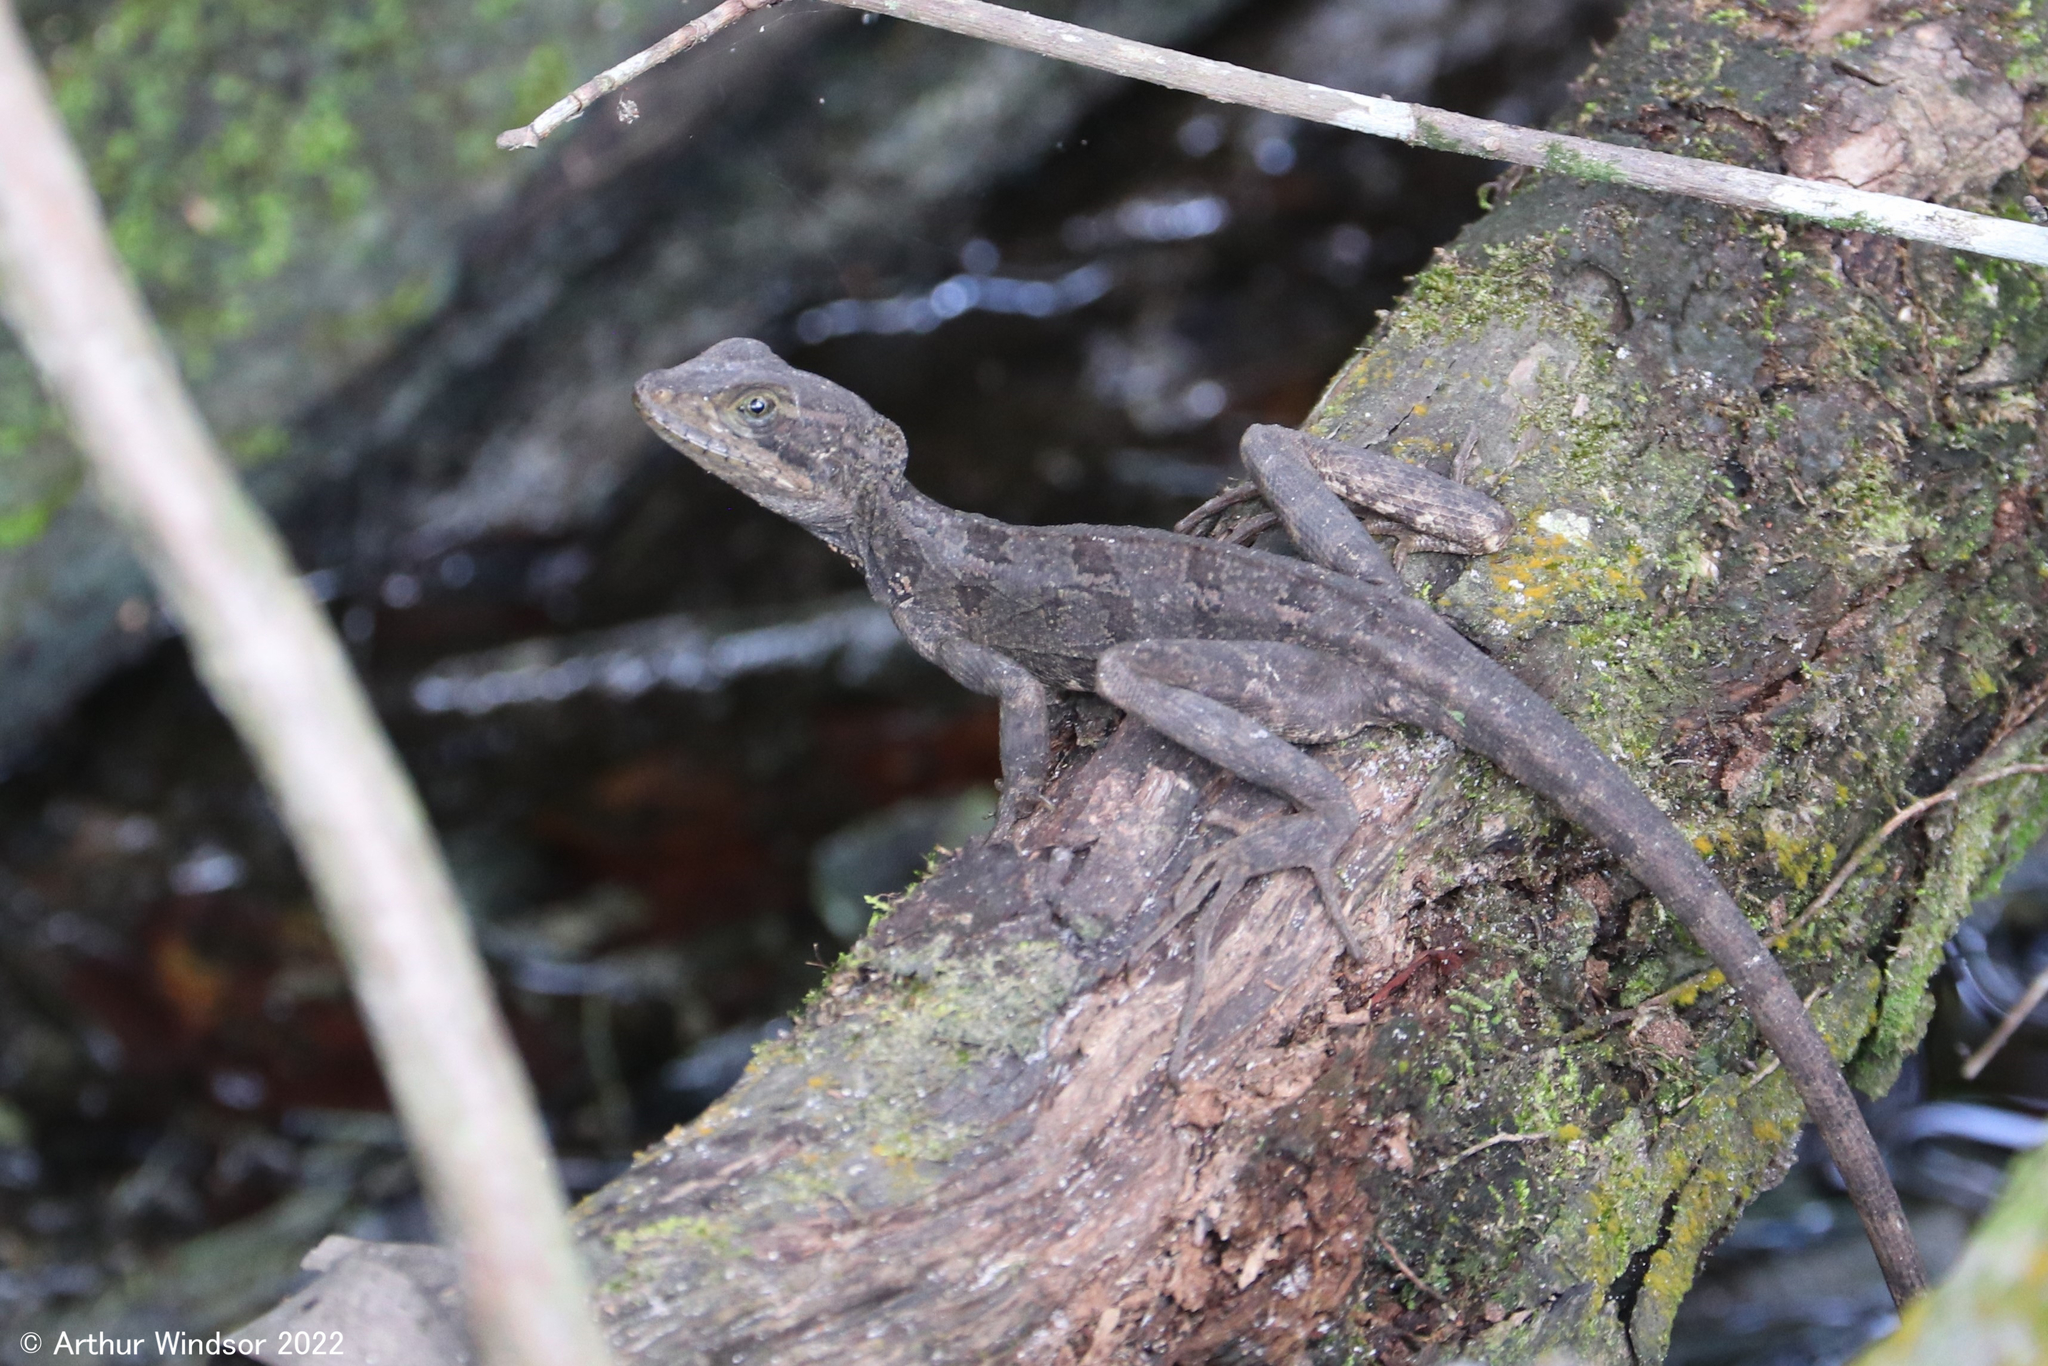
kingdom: Animalia
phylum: Chordata
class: Squamata
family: Corytophanidae
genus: Basiliscus
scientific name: Basiliscus vittatus
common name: Brown basilisk
